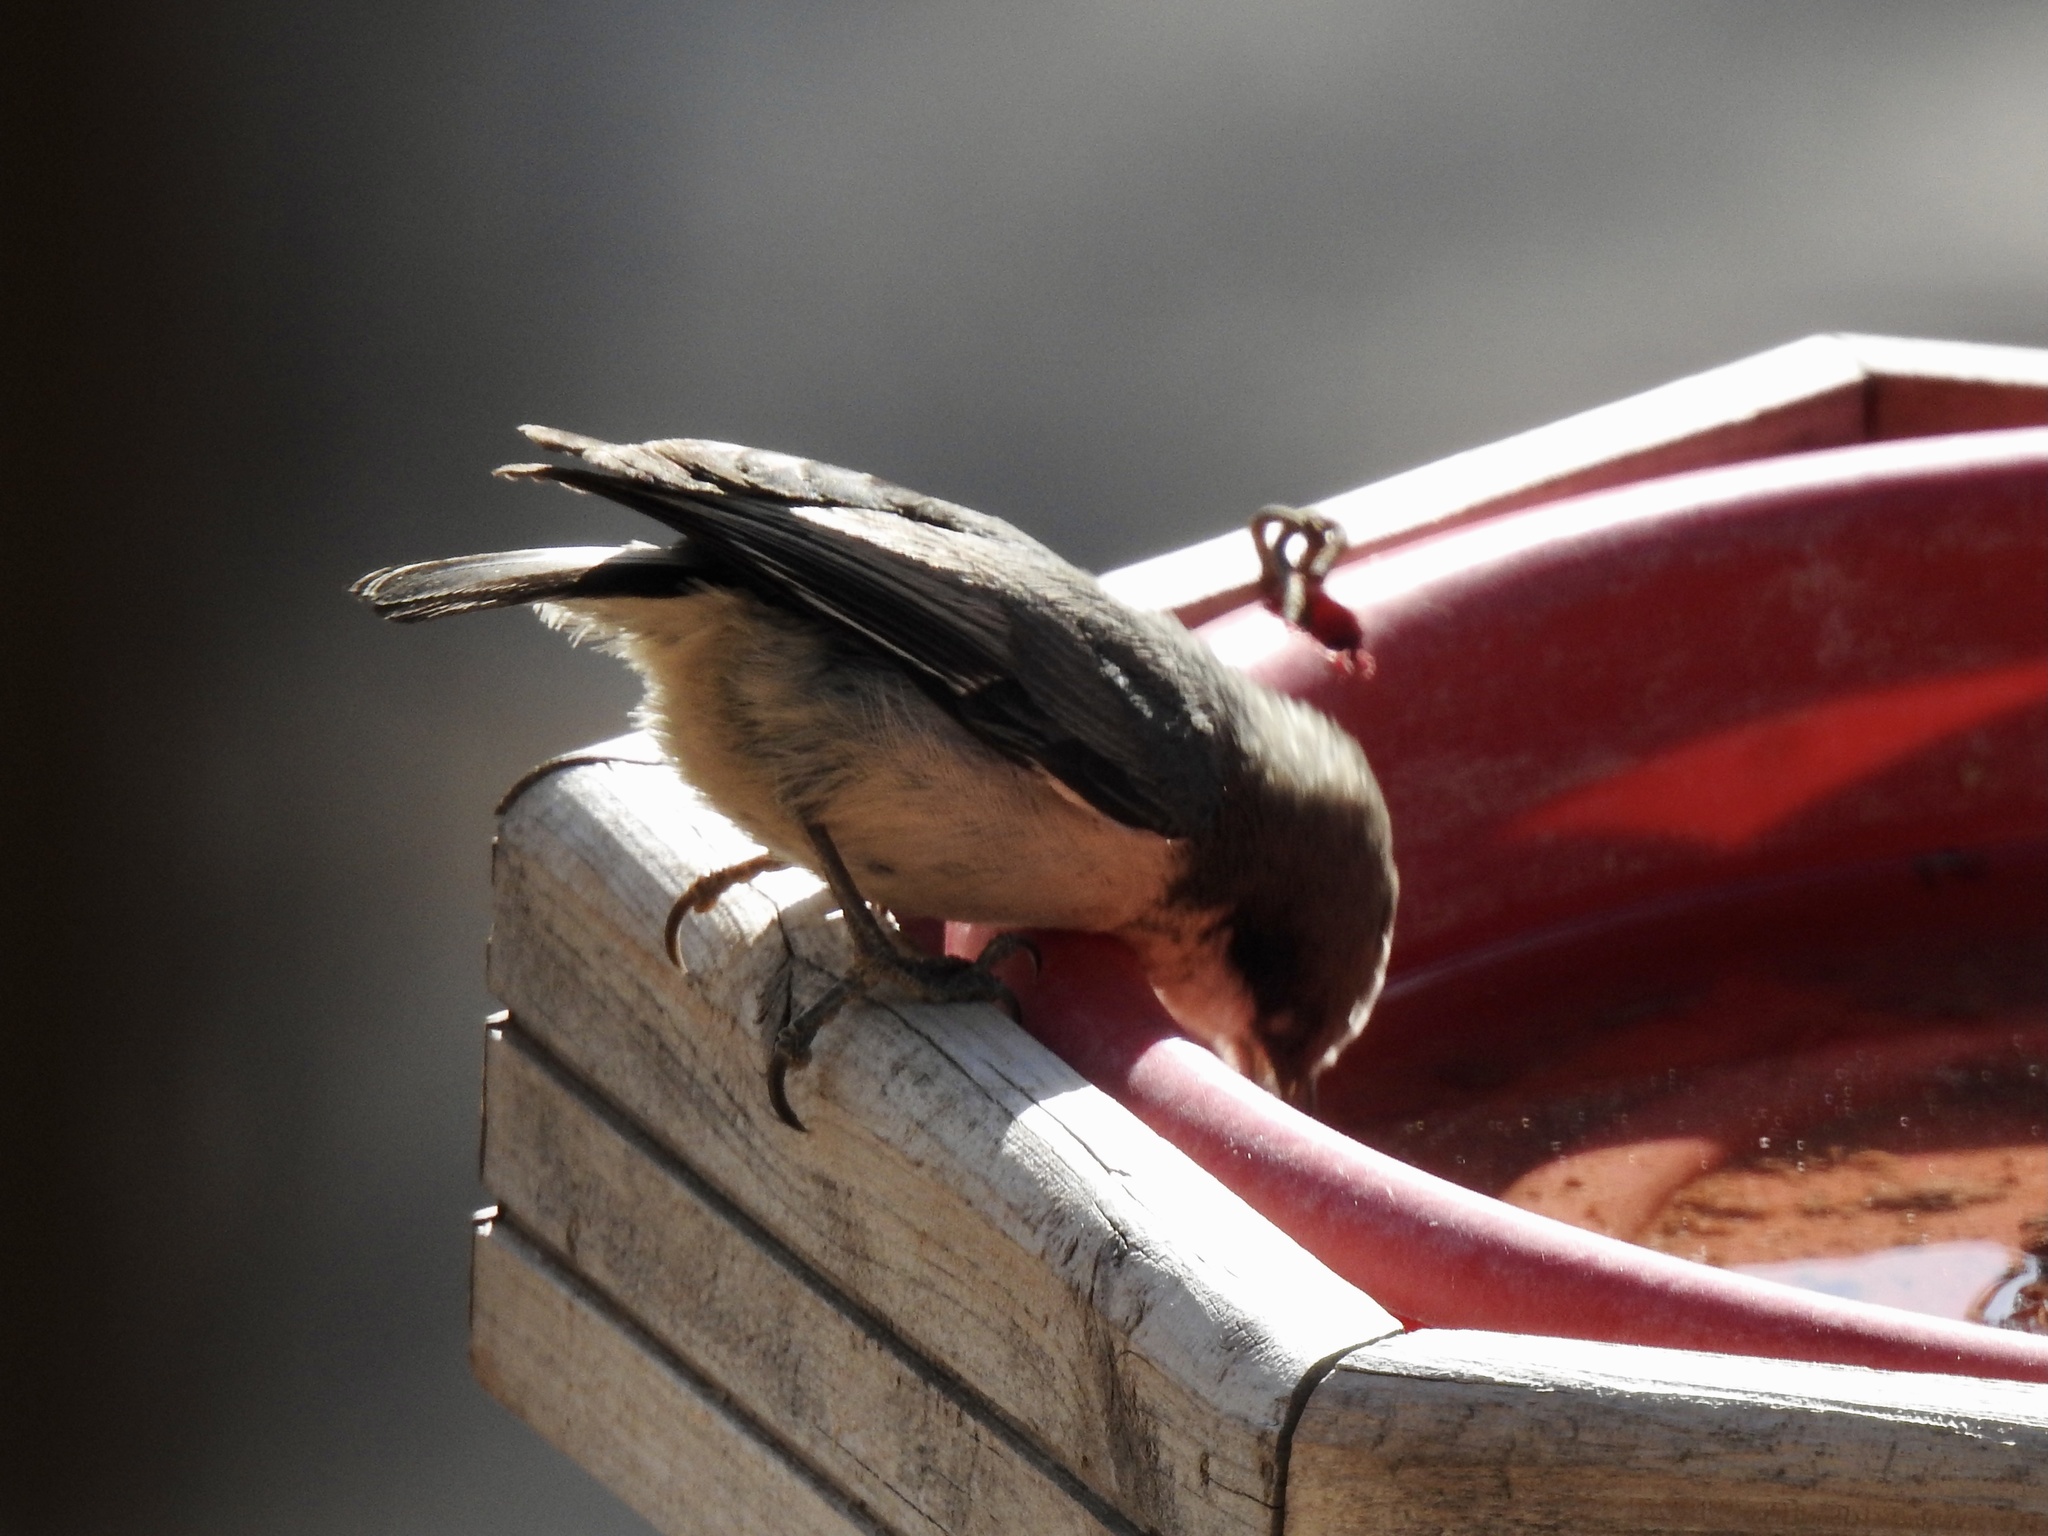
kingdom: Animalia
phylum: Chordata
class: Aves
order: Passeriformes
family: Sittidae
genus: Sitta
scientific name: Sitta pygmaea
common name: Pygmy nuthatch
